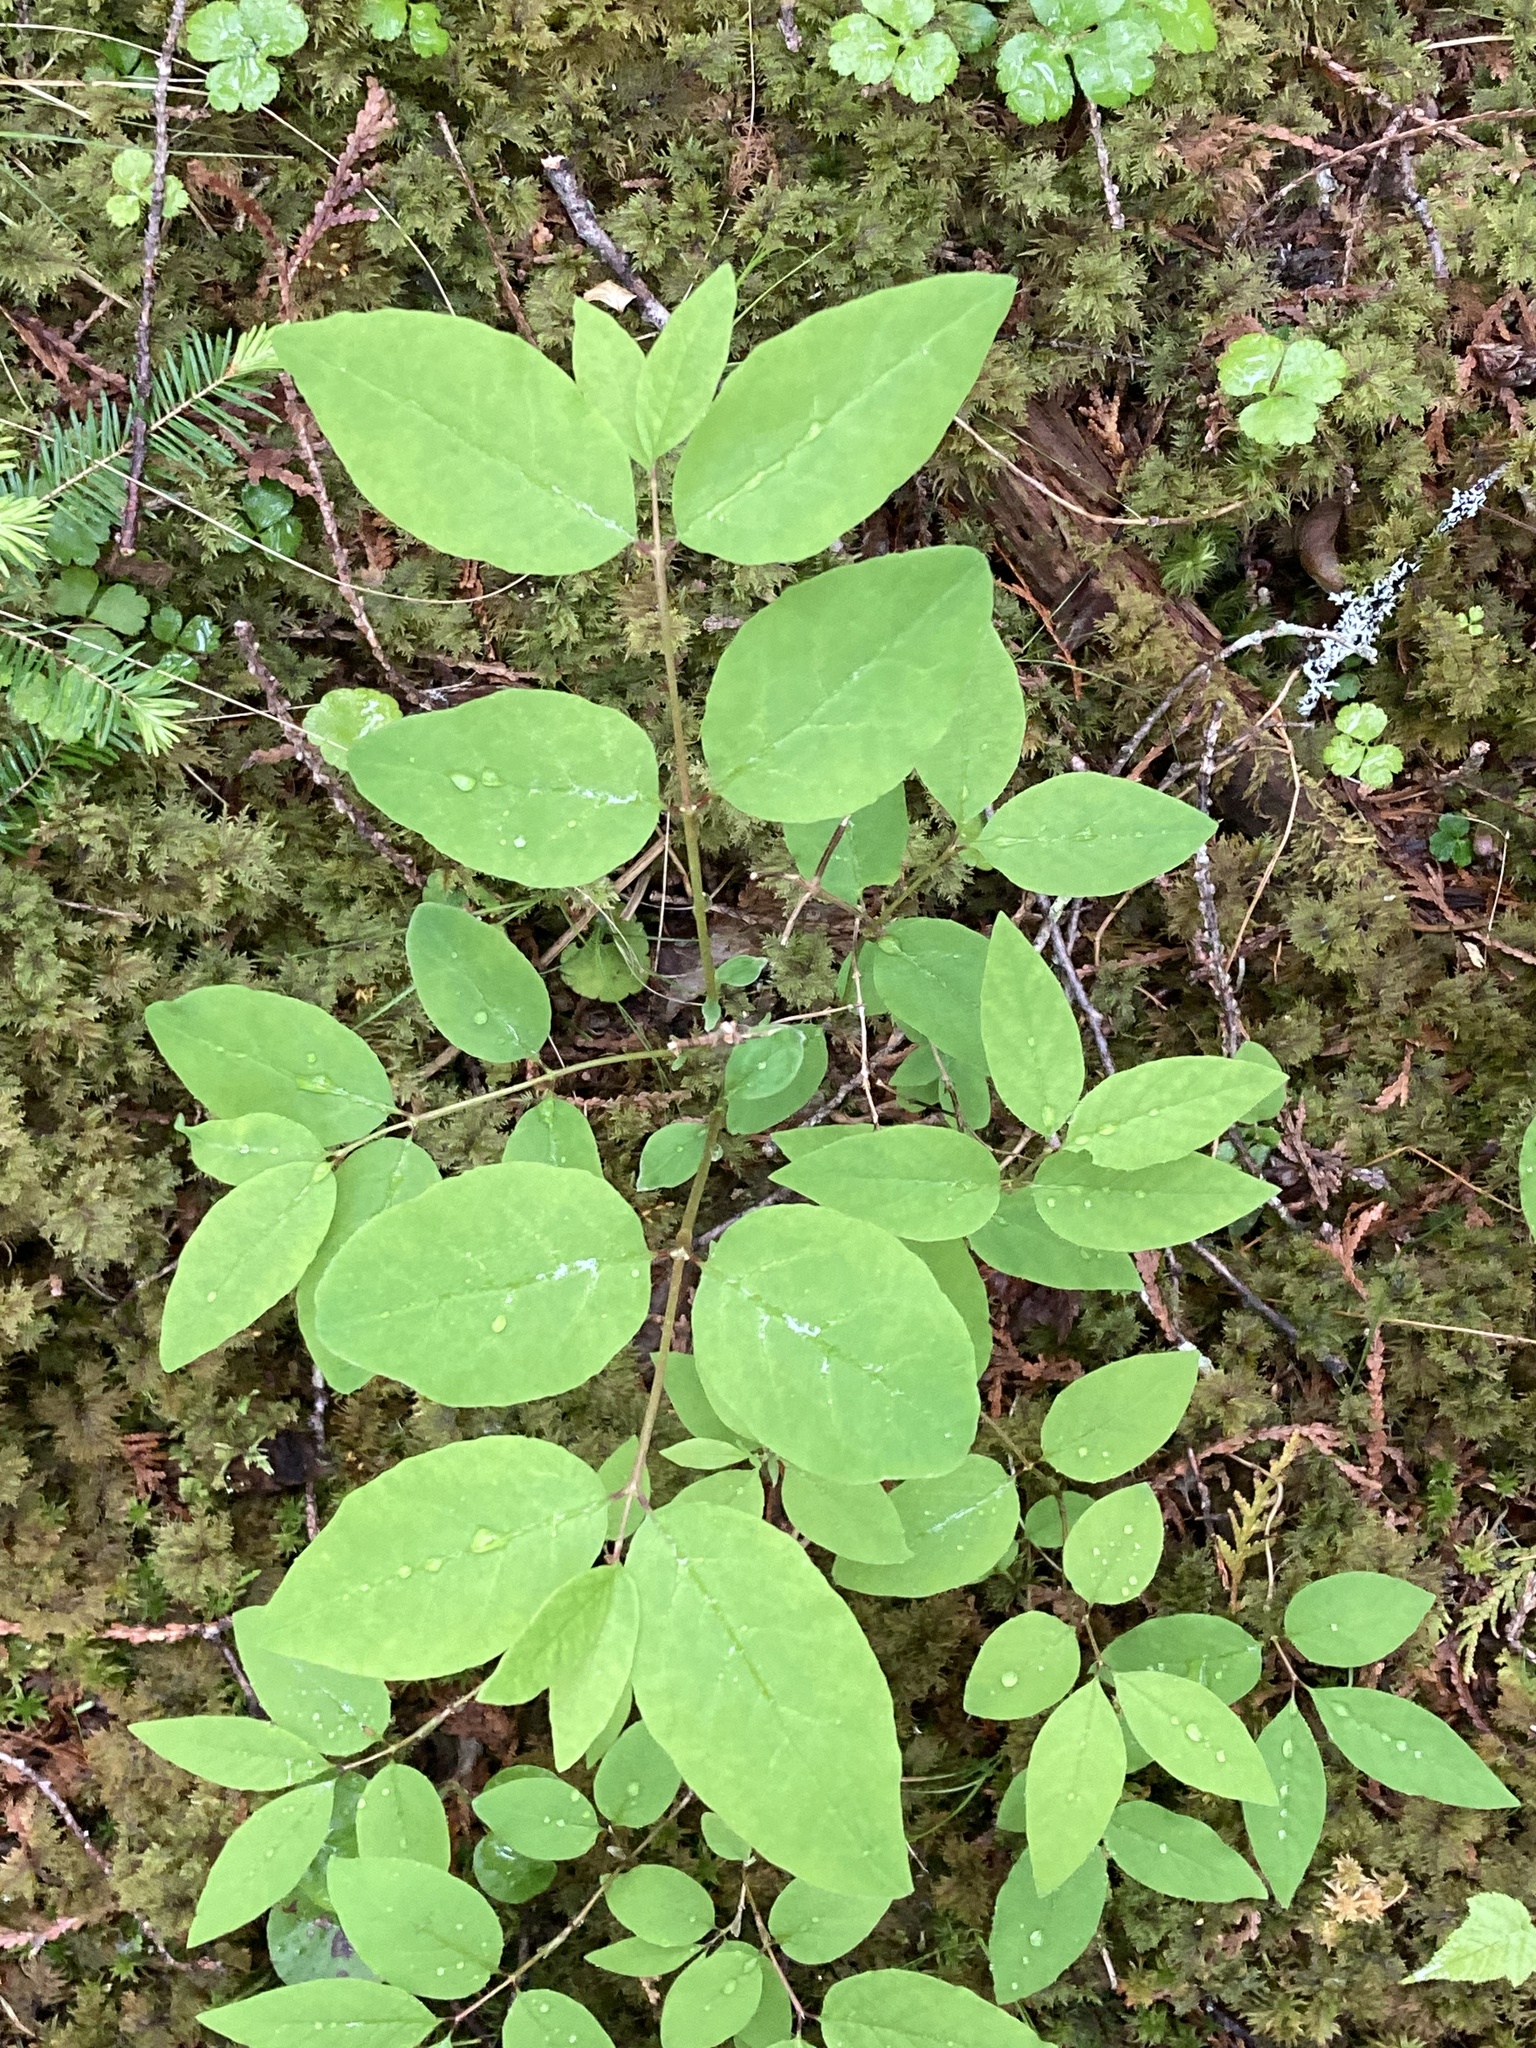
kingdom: Plantae
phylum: Tracheophyta
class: Magnoliopsida
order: Dipsacales
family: Caprifoliaceae
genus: Lonicera
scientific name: Lonicera canadensis
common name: American fly-honeysuckle
